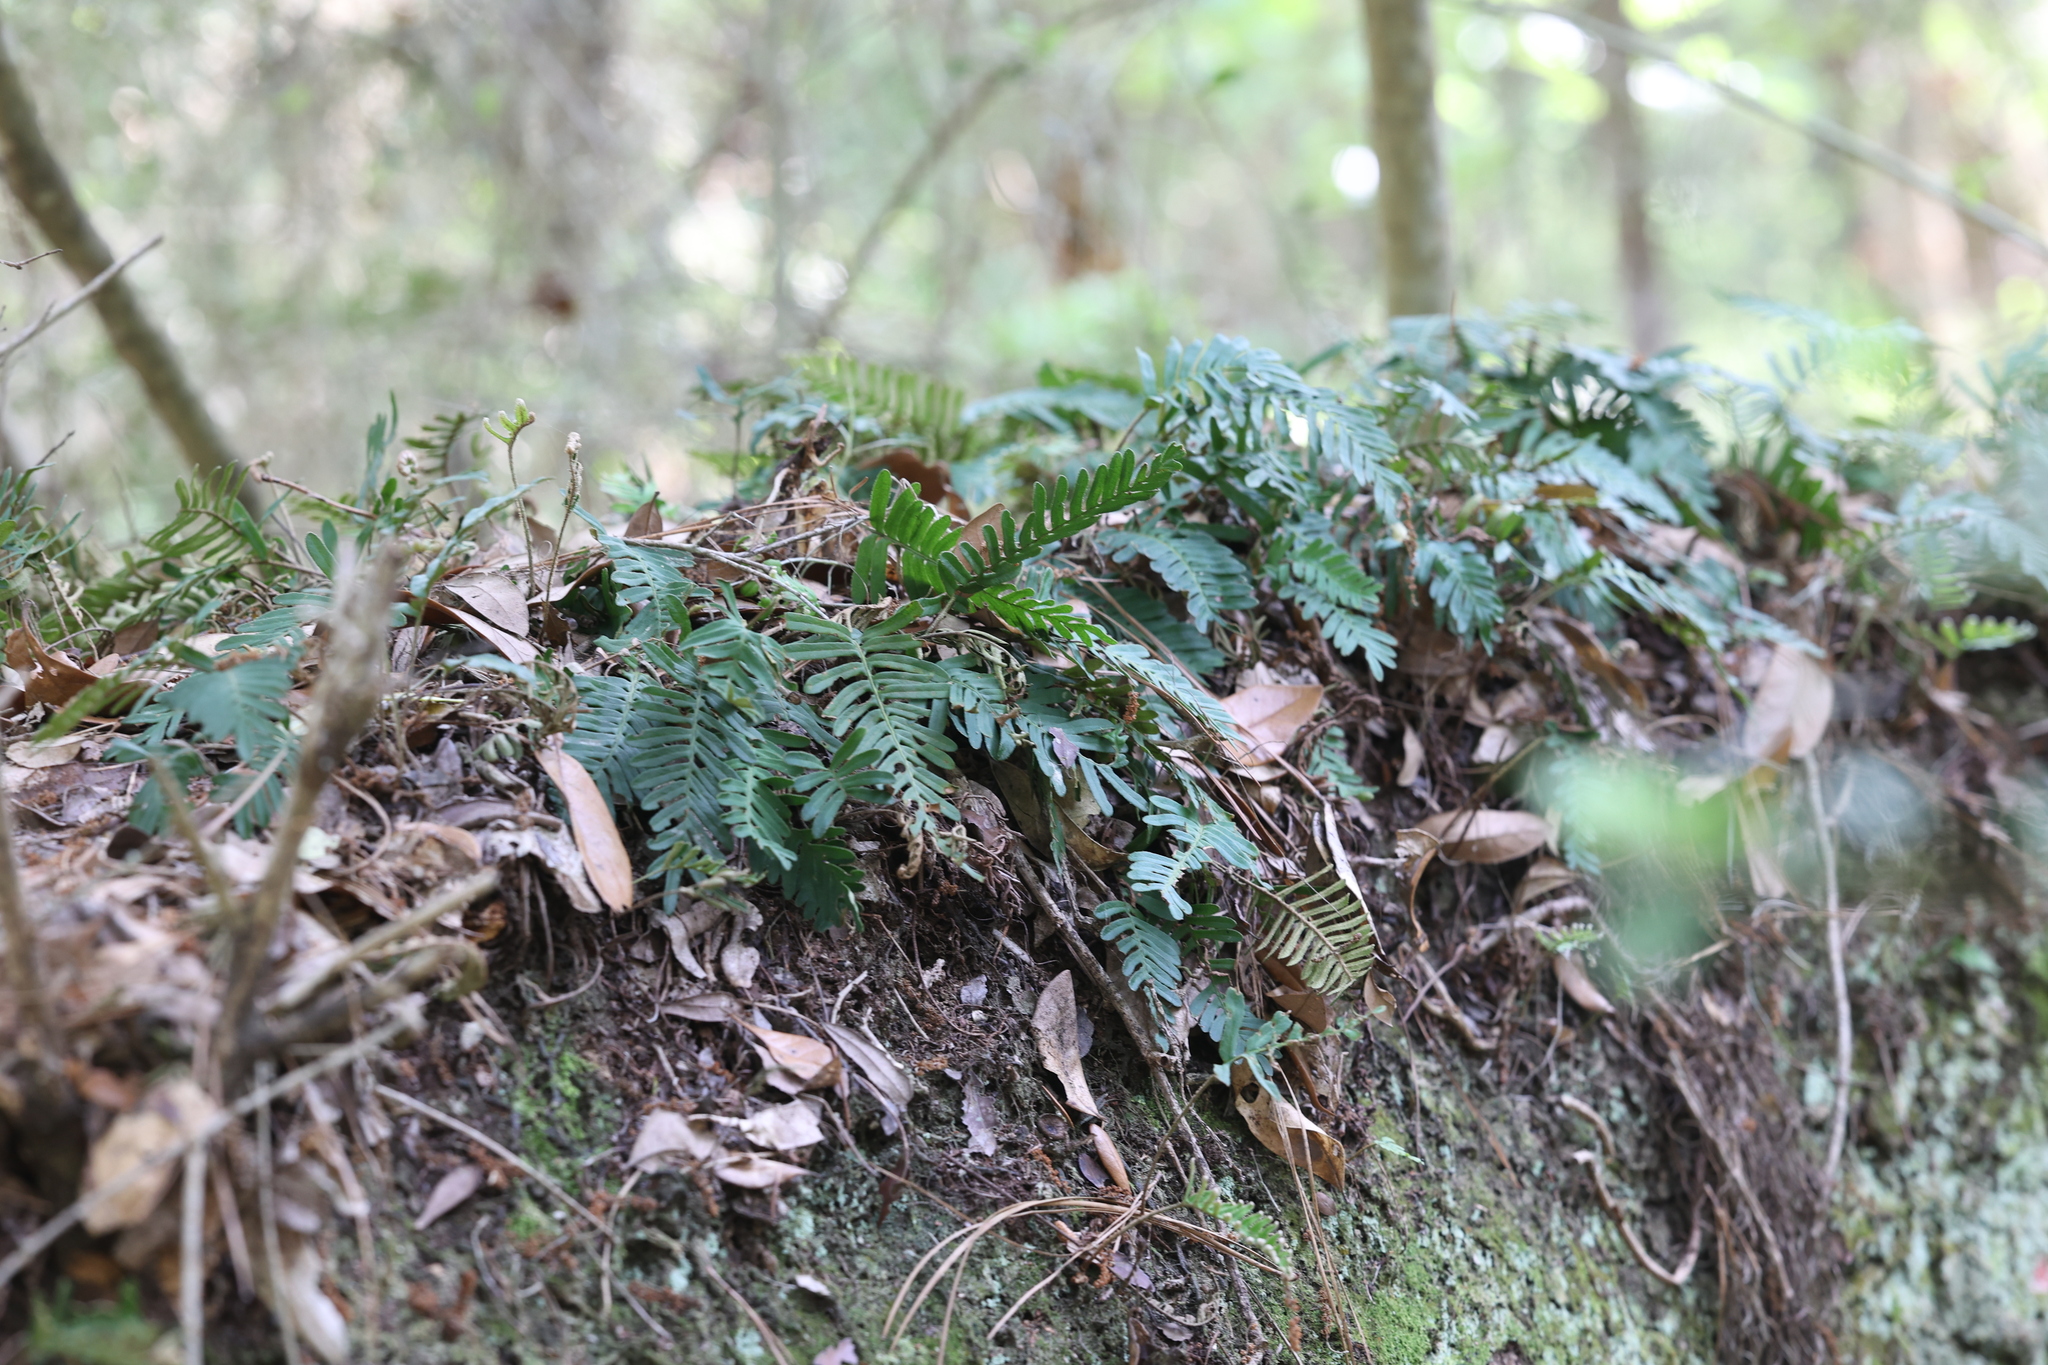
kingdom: Plantae
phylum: Tracheophyta
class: Polypodiopsida
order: Polypodiales
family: Polypodiaceae
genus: Pleopeltis
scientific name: Pleopeltis michauxiana
